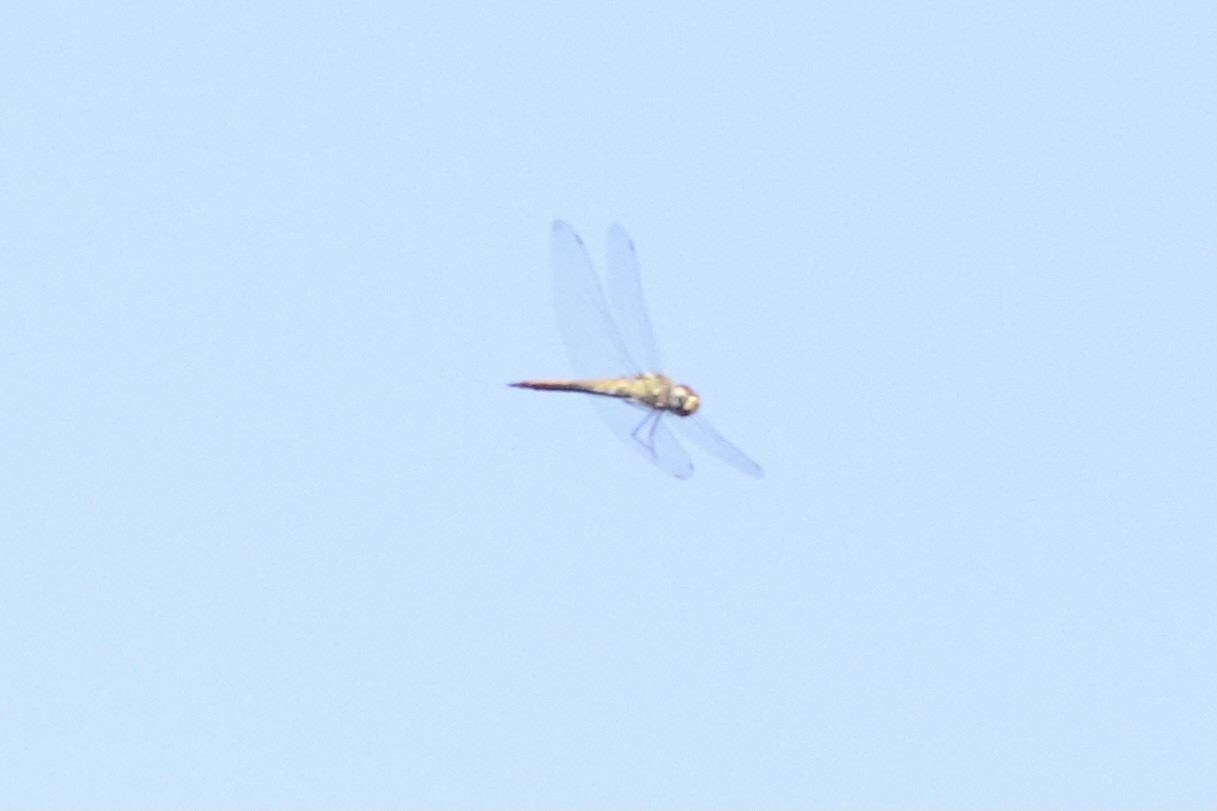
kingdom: Animalia
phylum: Arthropoda
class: Insecta
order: Odonata
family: Libellulidae
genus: Pantala
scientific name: Pantala flavescens
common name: Wandering glider
